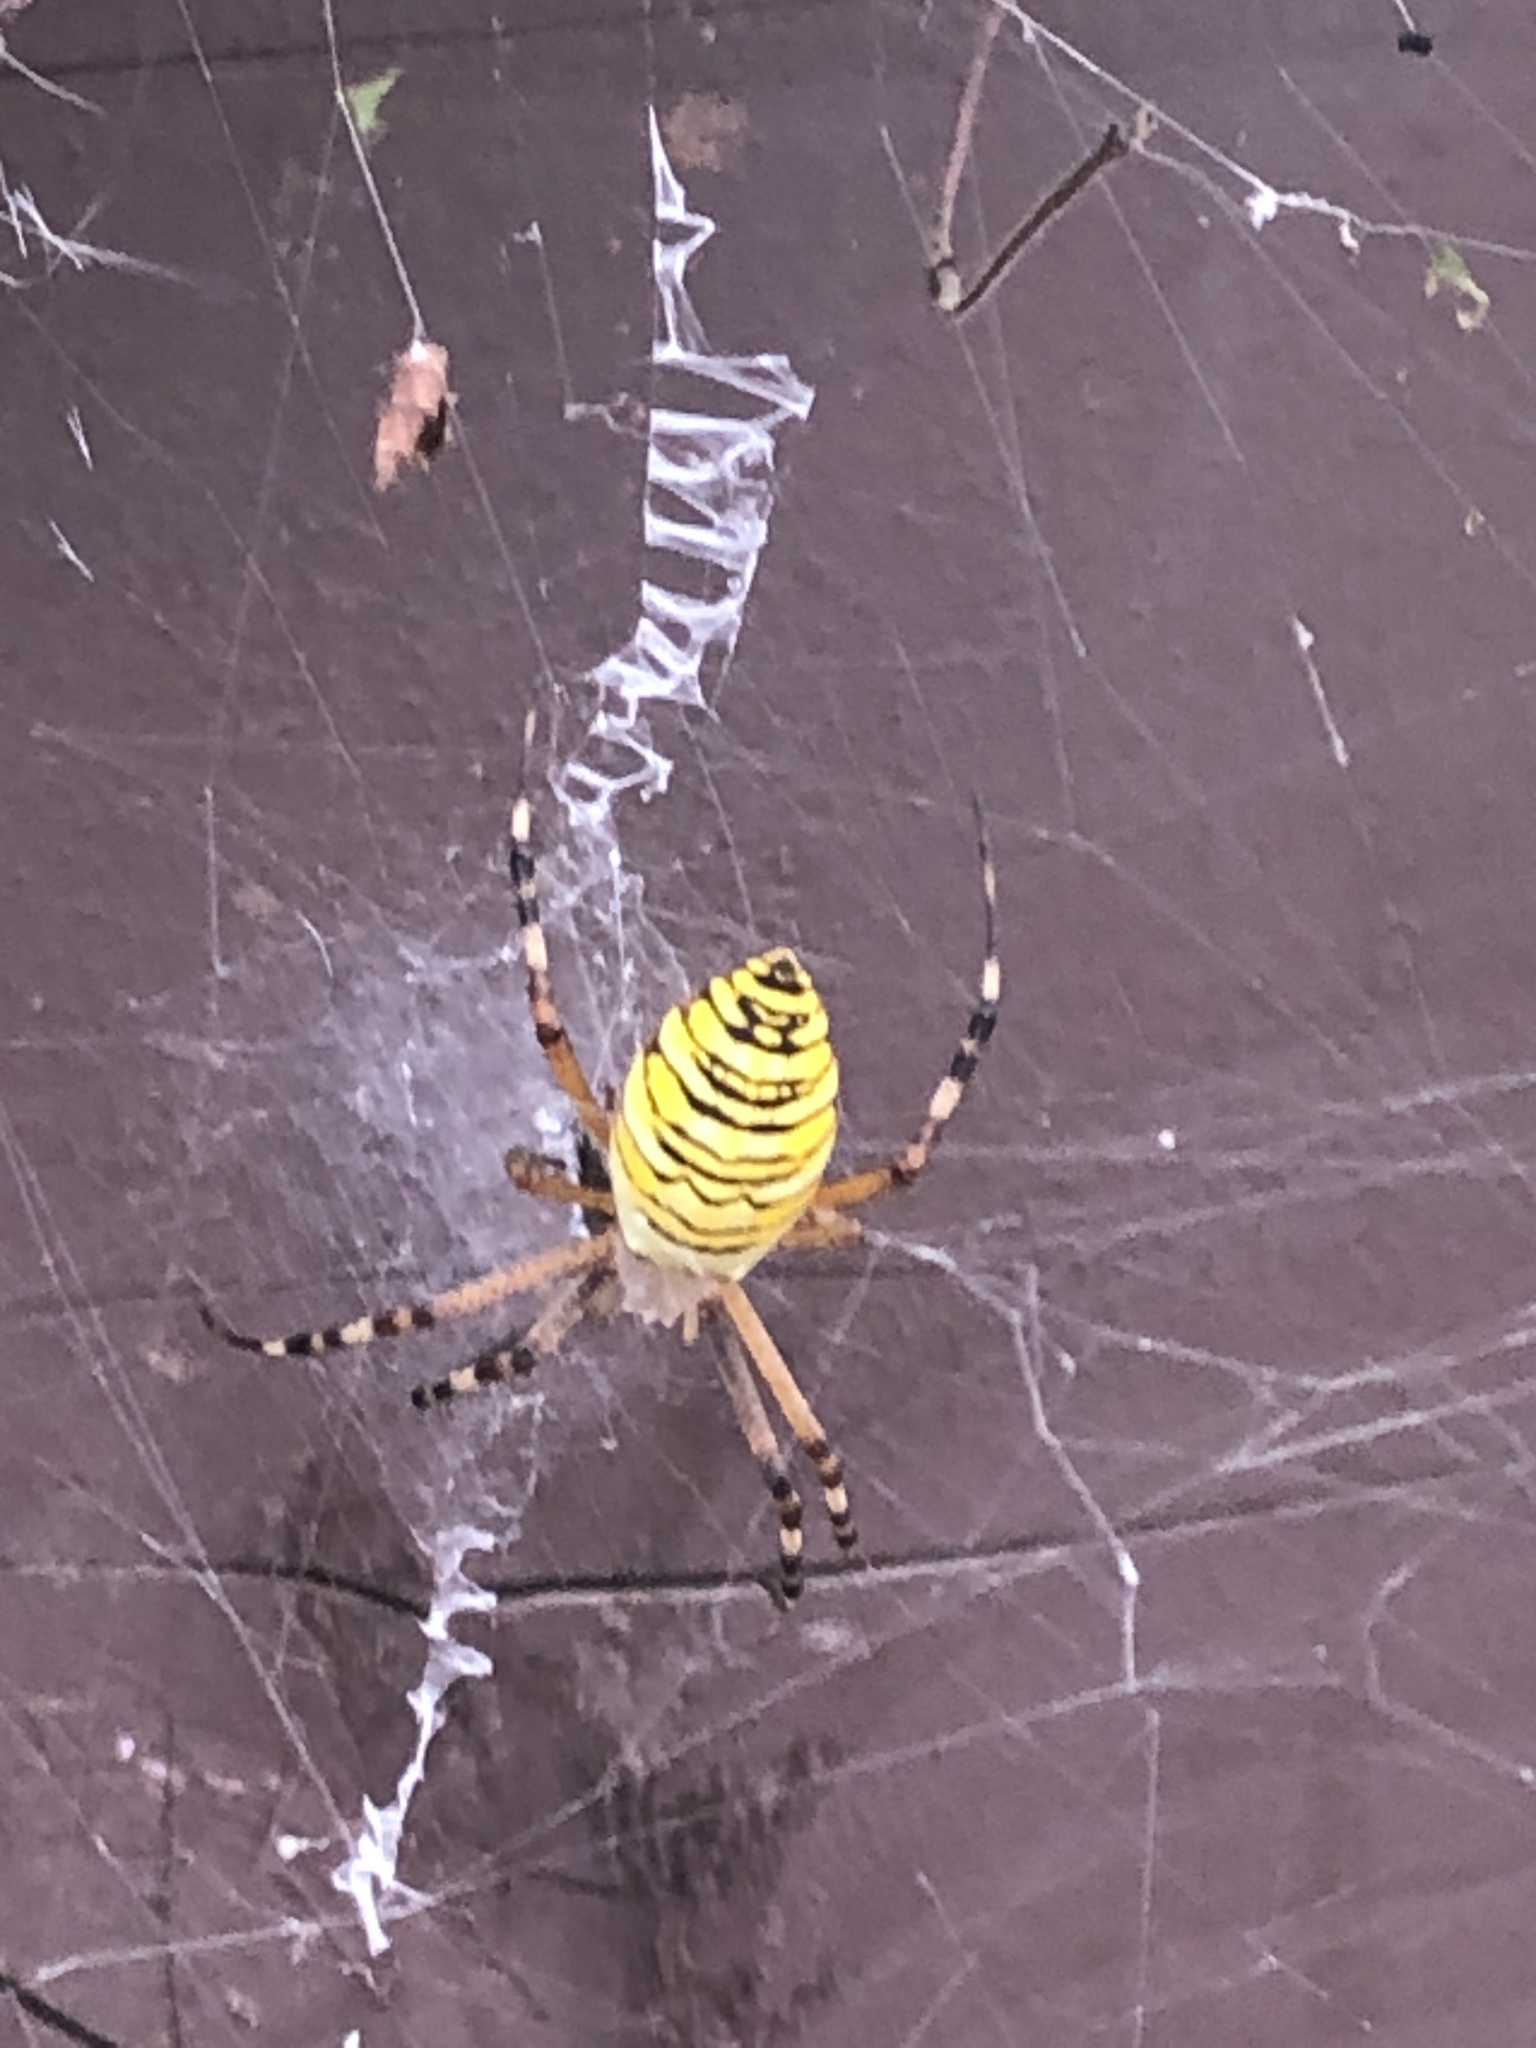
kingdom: Animalia
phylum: Arthropoda
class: Arachnida
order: Araneae
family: Araneidae
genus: Argiope
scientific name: Argiope bruennichi
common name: Wasp spider
